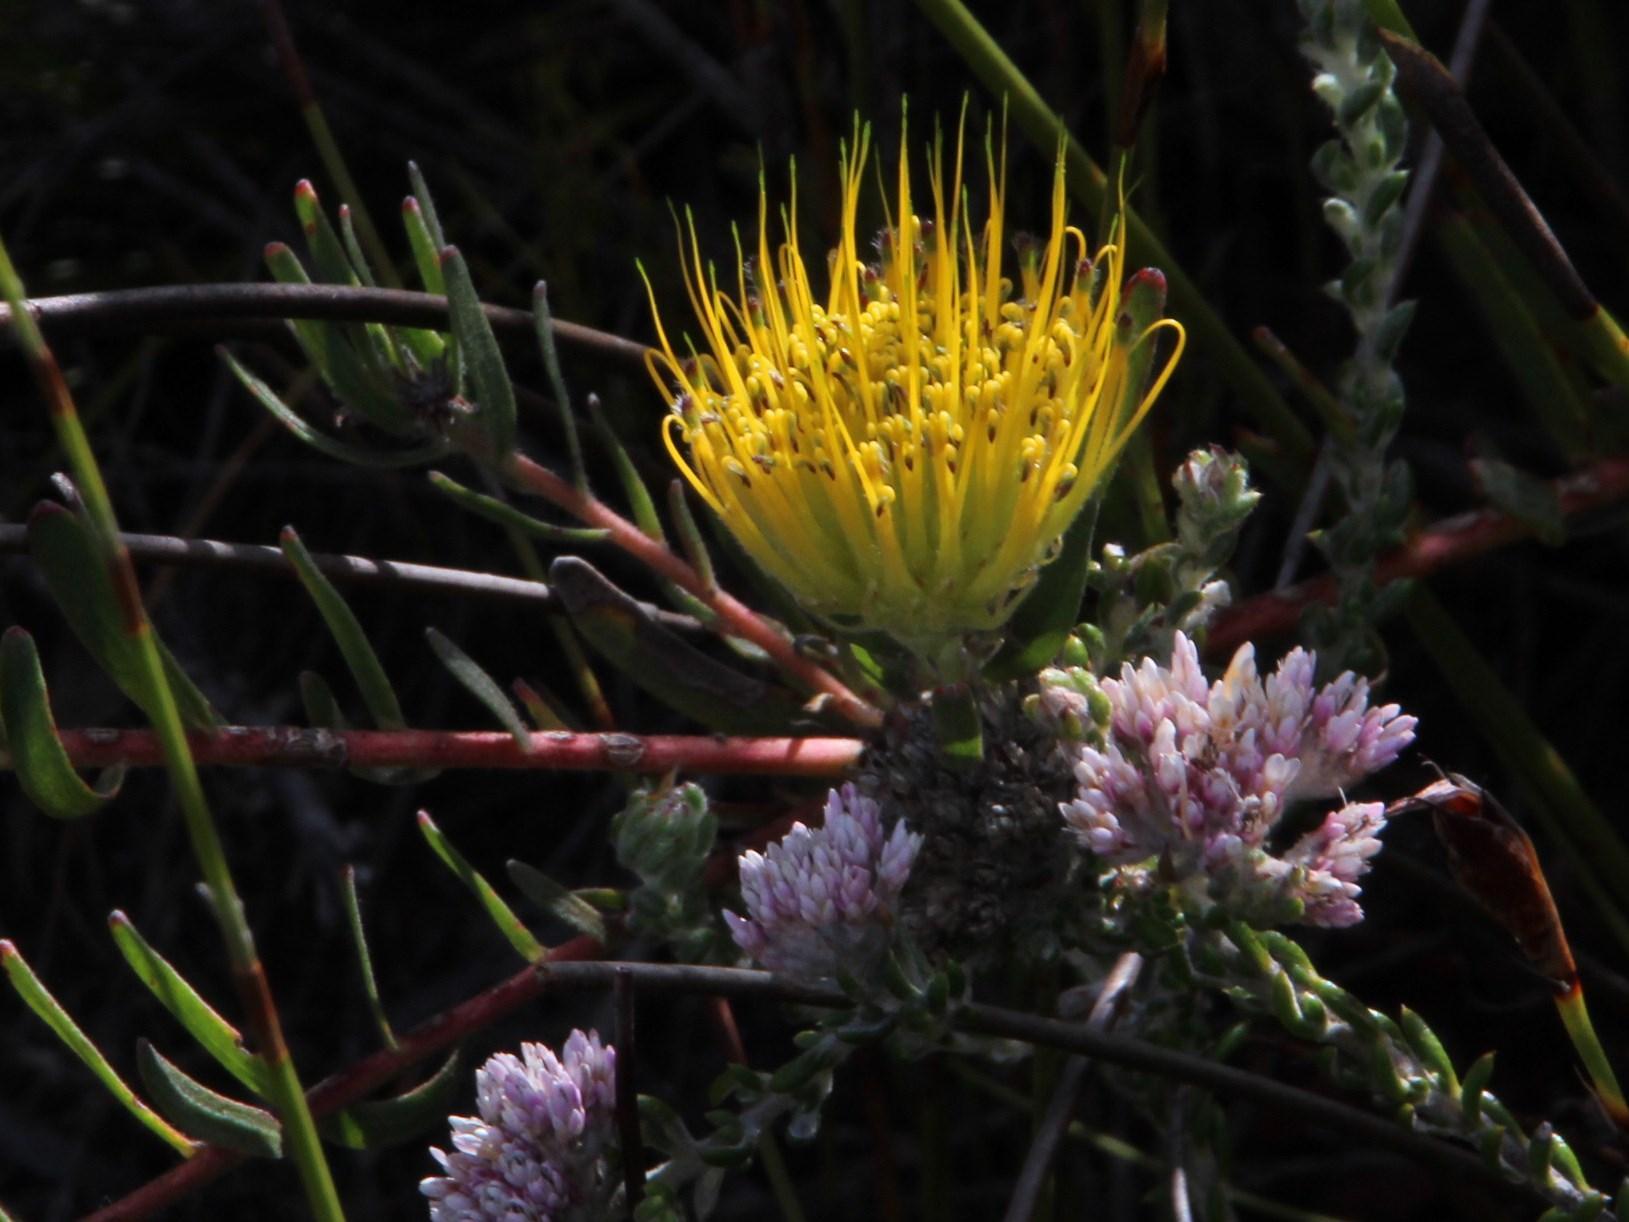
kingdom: Plantae
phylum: Tracheophyta
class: Magnoliopsida
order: Proteales
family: Proteaceae
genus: Leucospermum
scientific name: Leucospermum gracile
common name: Hermanus pincushion
